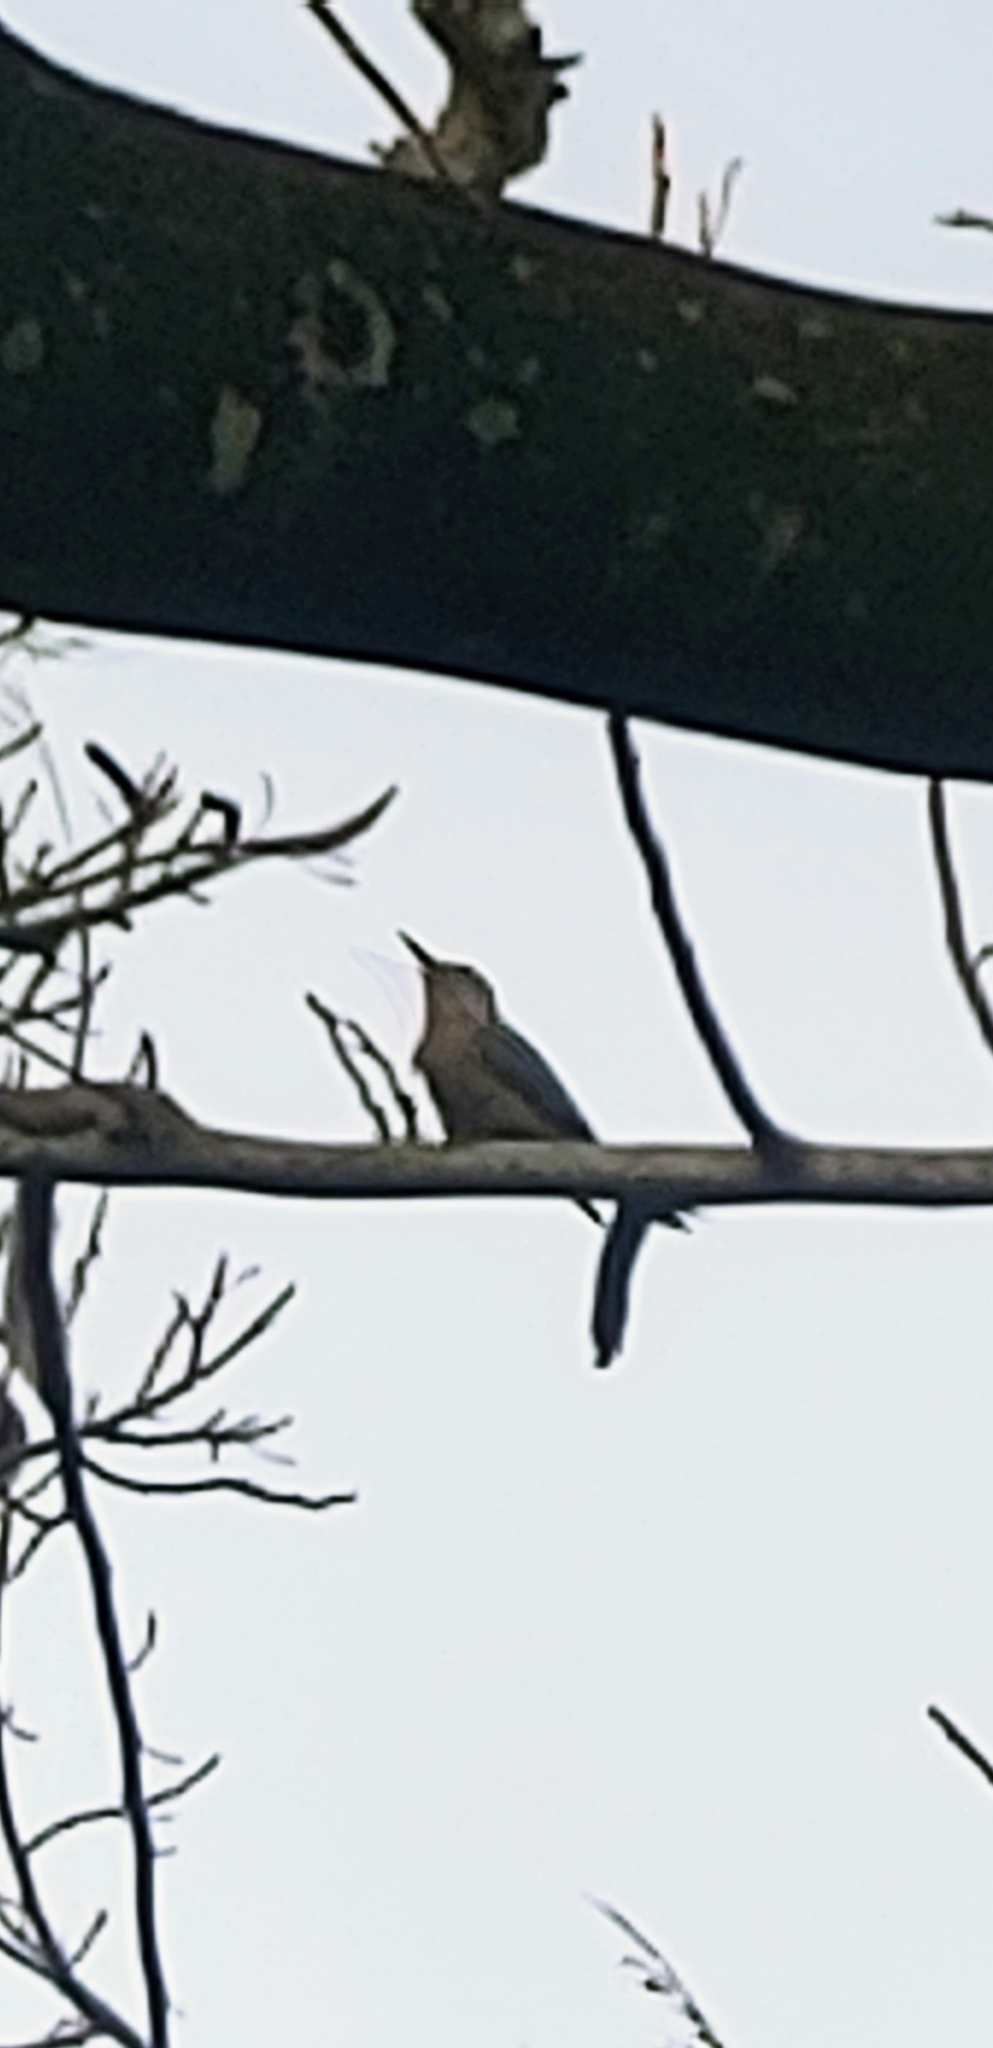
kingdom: Animalia
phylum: Chordata
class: Aves
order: Piciformes
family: Picidae
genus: Melanerpes
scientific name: Melanerpes carolinus
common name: Red-bellied woodpecker
